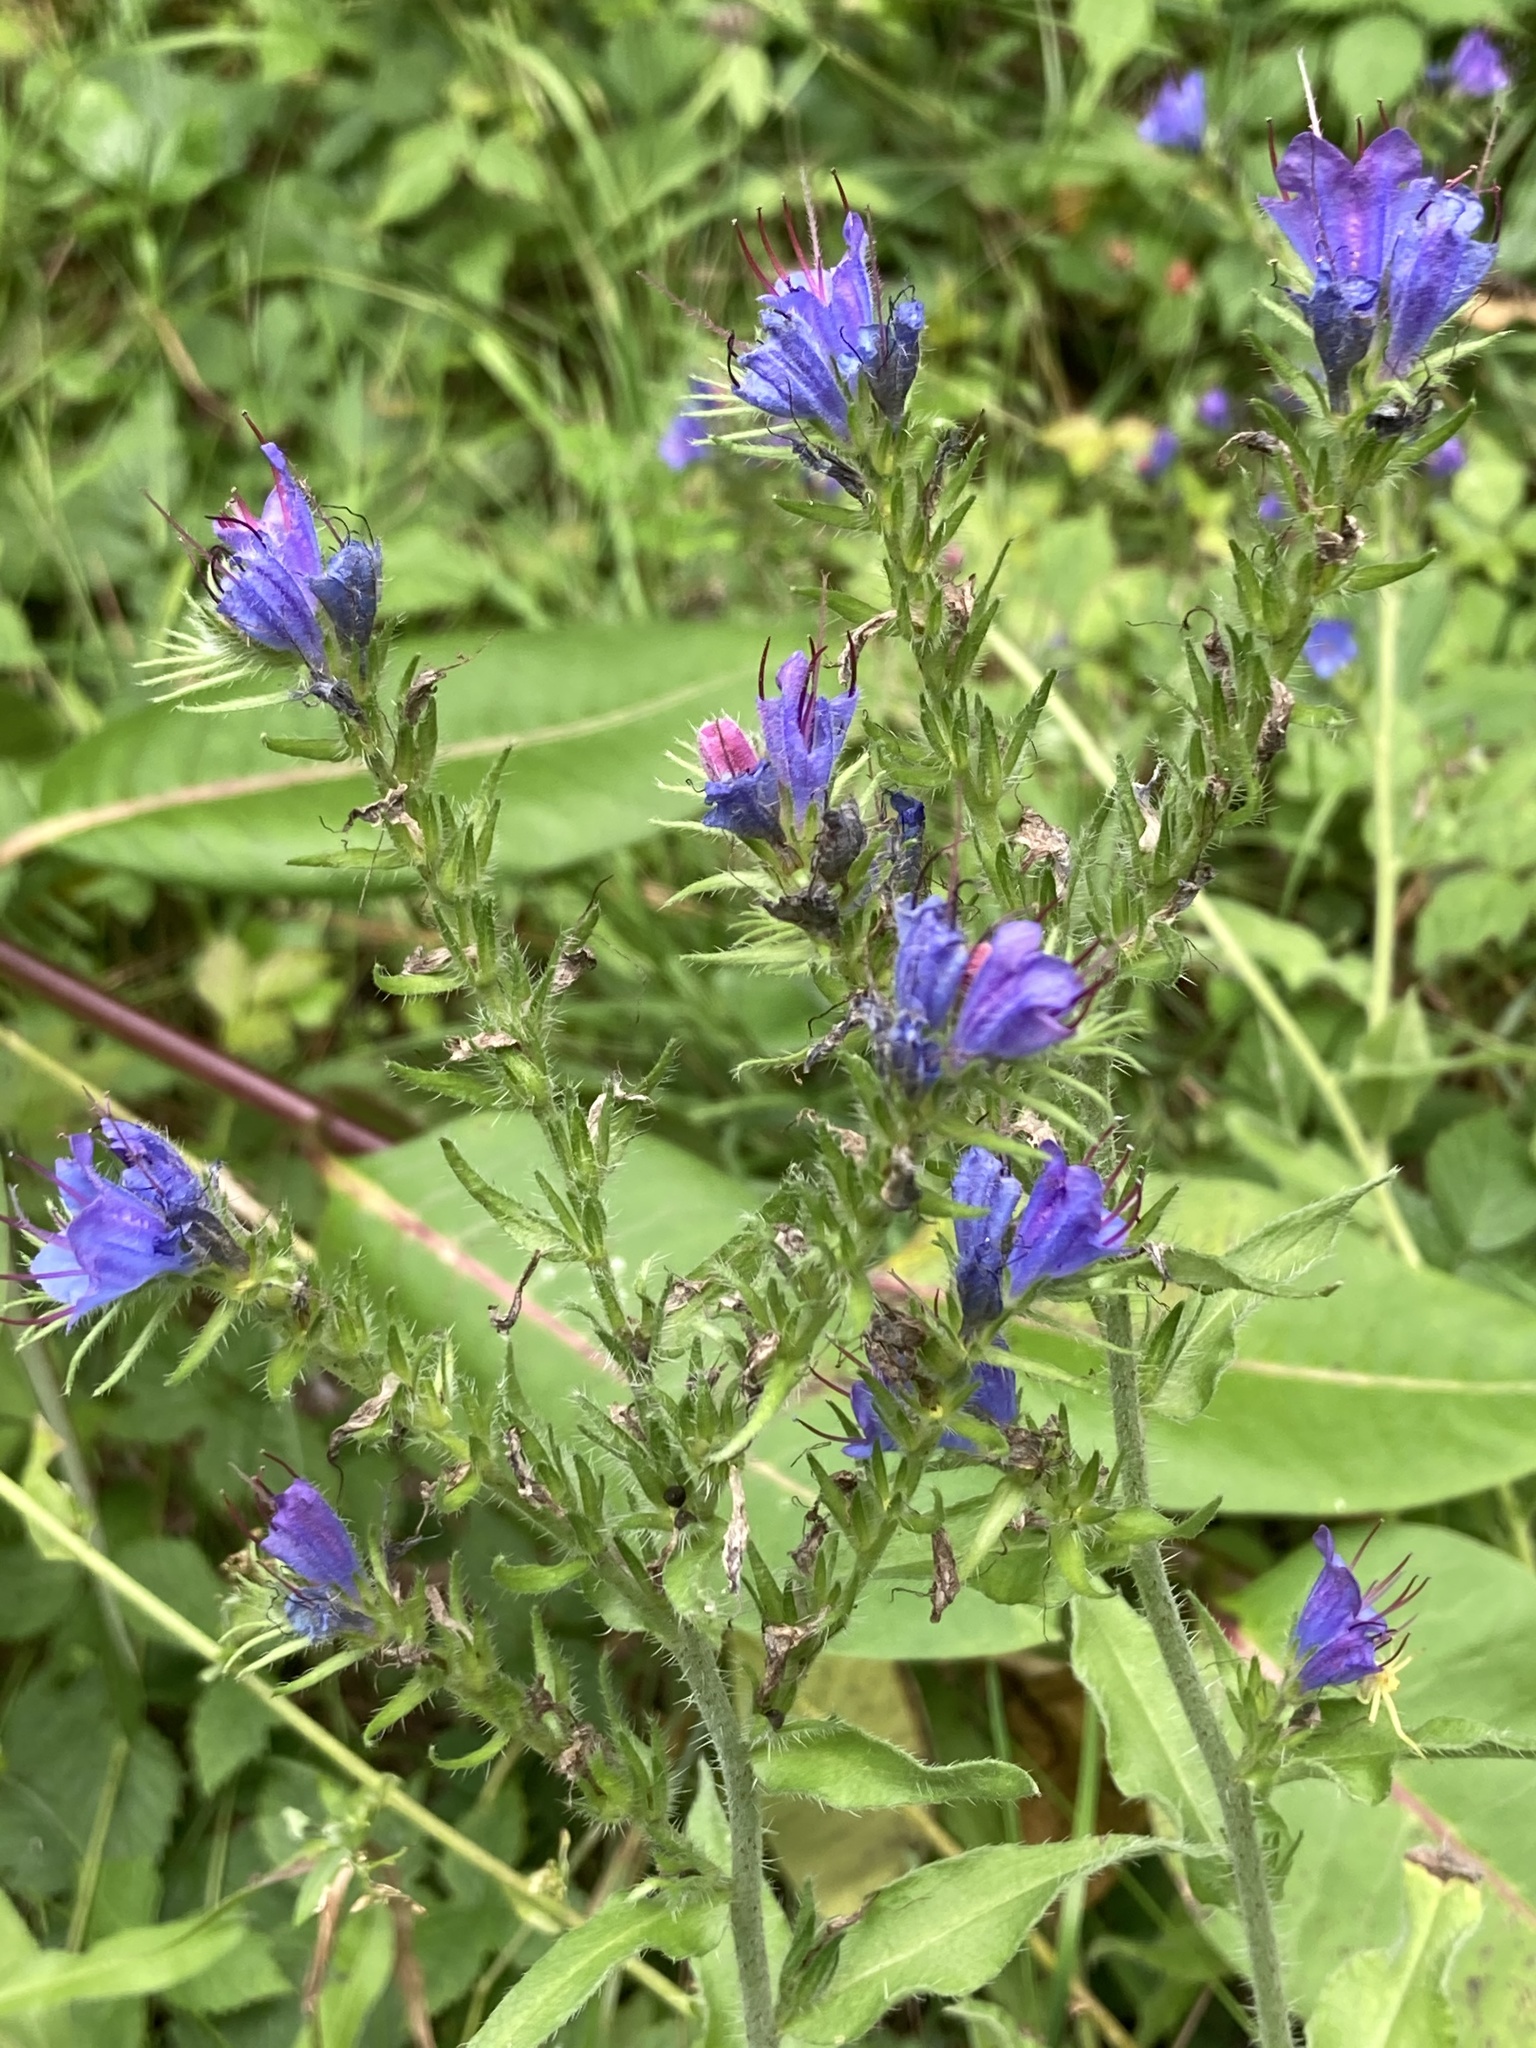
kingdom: Plantae
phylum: Tracheophyta
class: Magnoliopsida
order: Boraginales
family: Boraginaceae
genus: Echium
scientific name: Echium vulgare
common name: Common viper's bugloss
